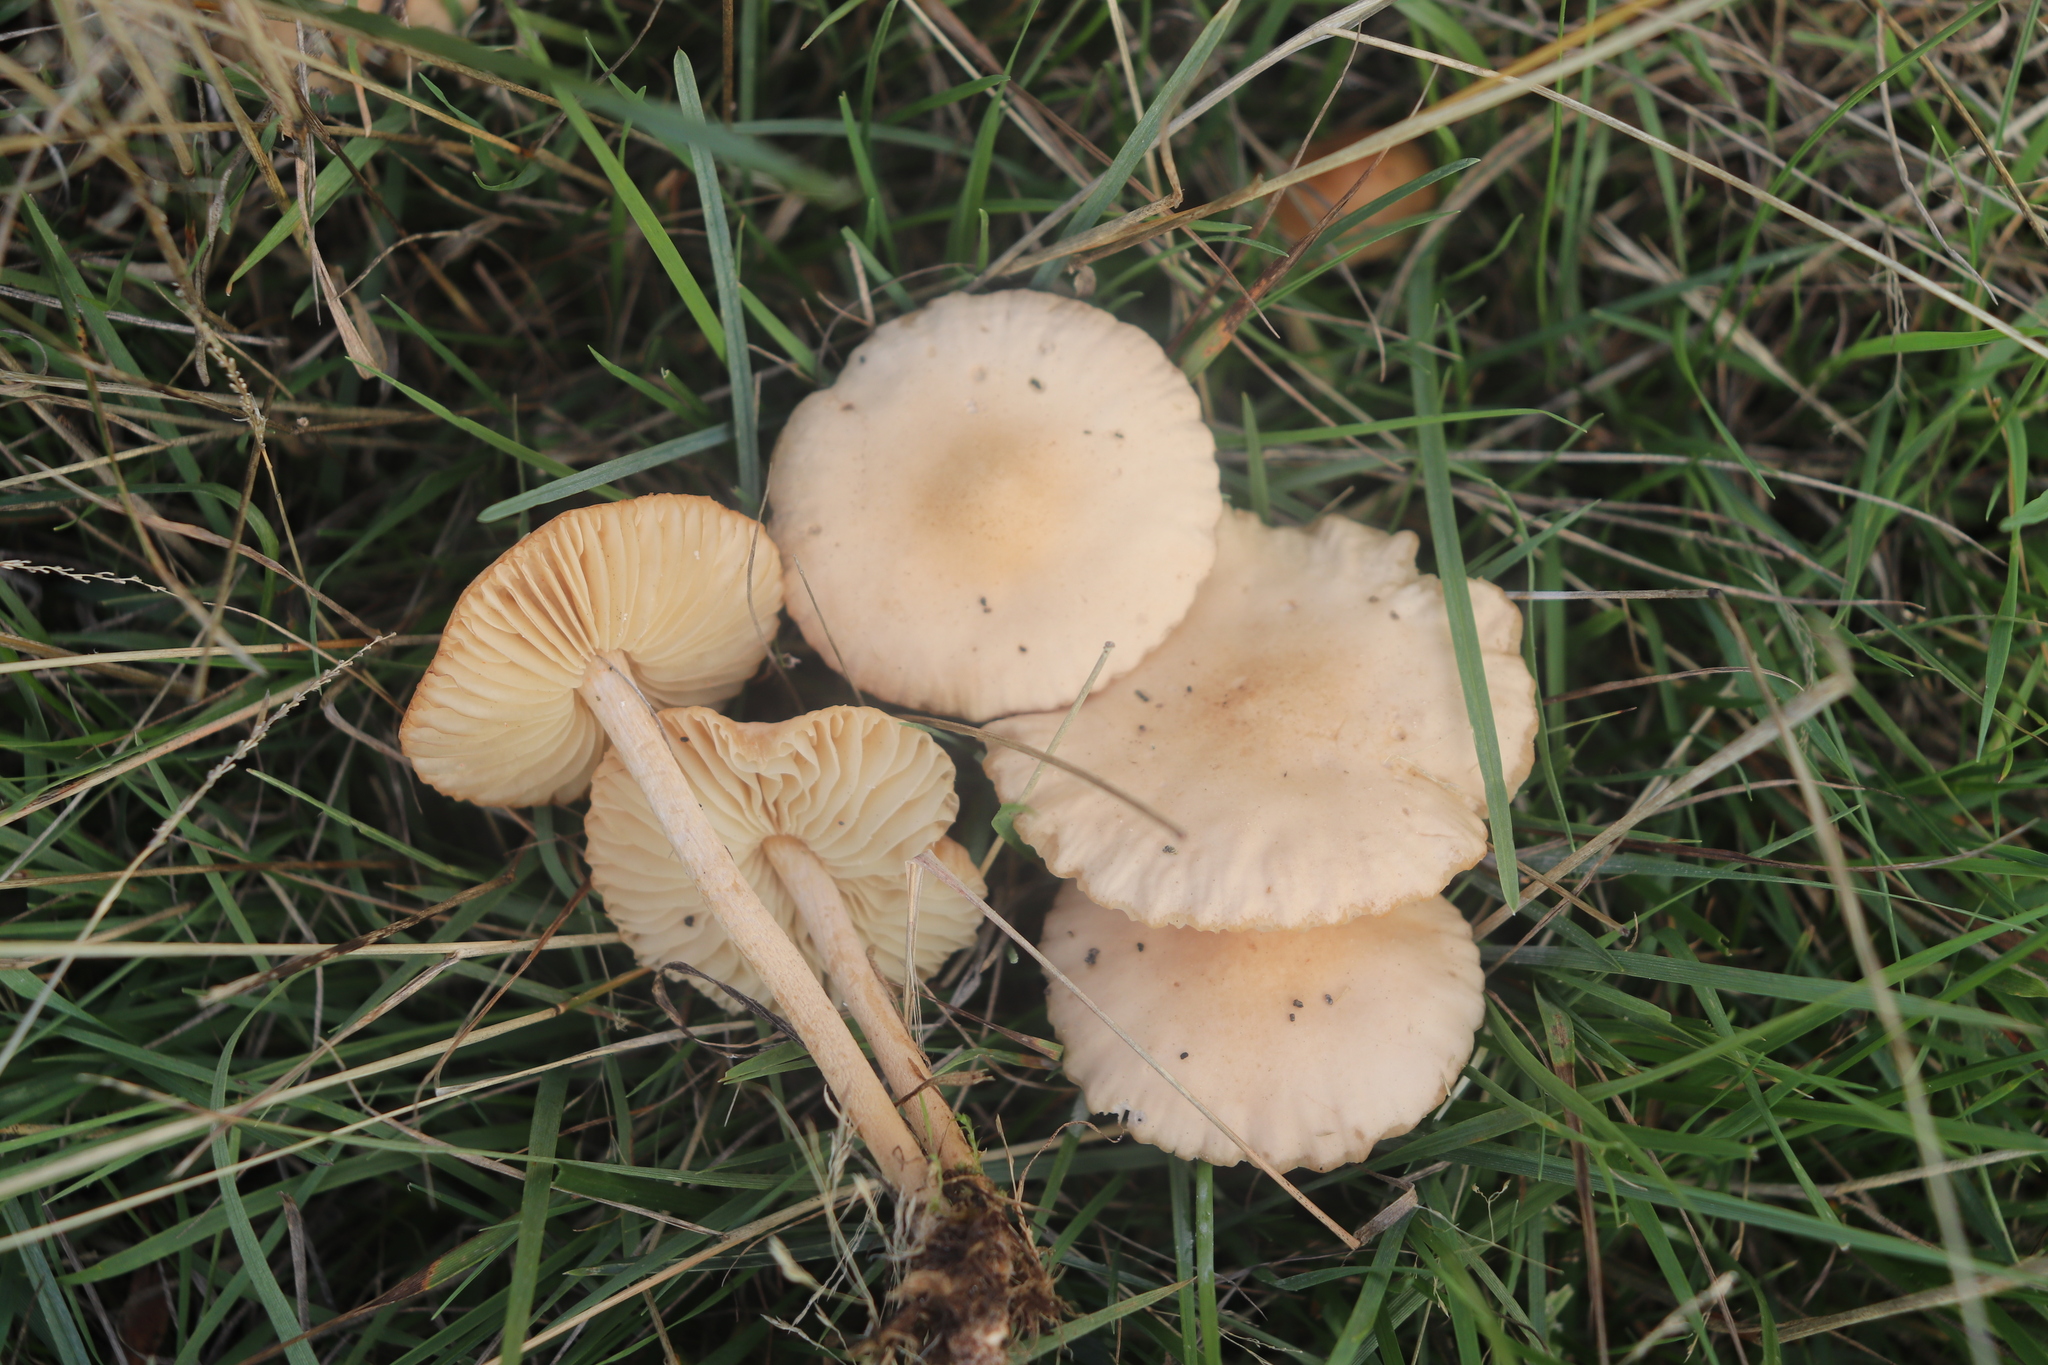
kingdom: Fungi
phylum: Basidiomycota
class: Agaricomycetes
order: Agaricales
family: Marasmiaceae
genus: Marasmius
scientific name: Marasmius oreades
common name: Fairy ring champignon
